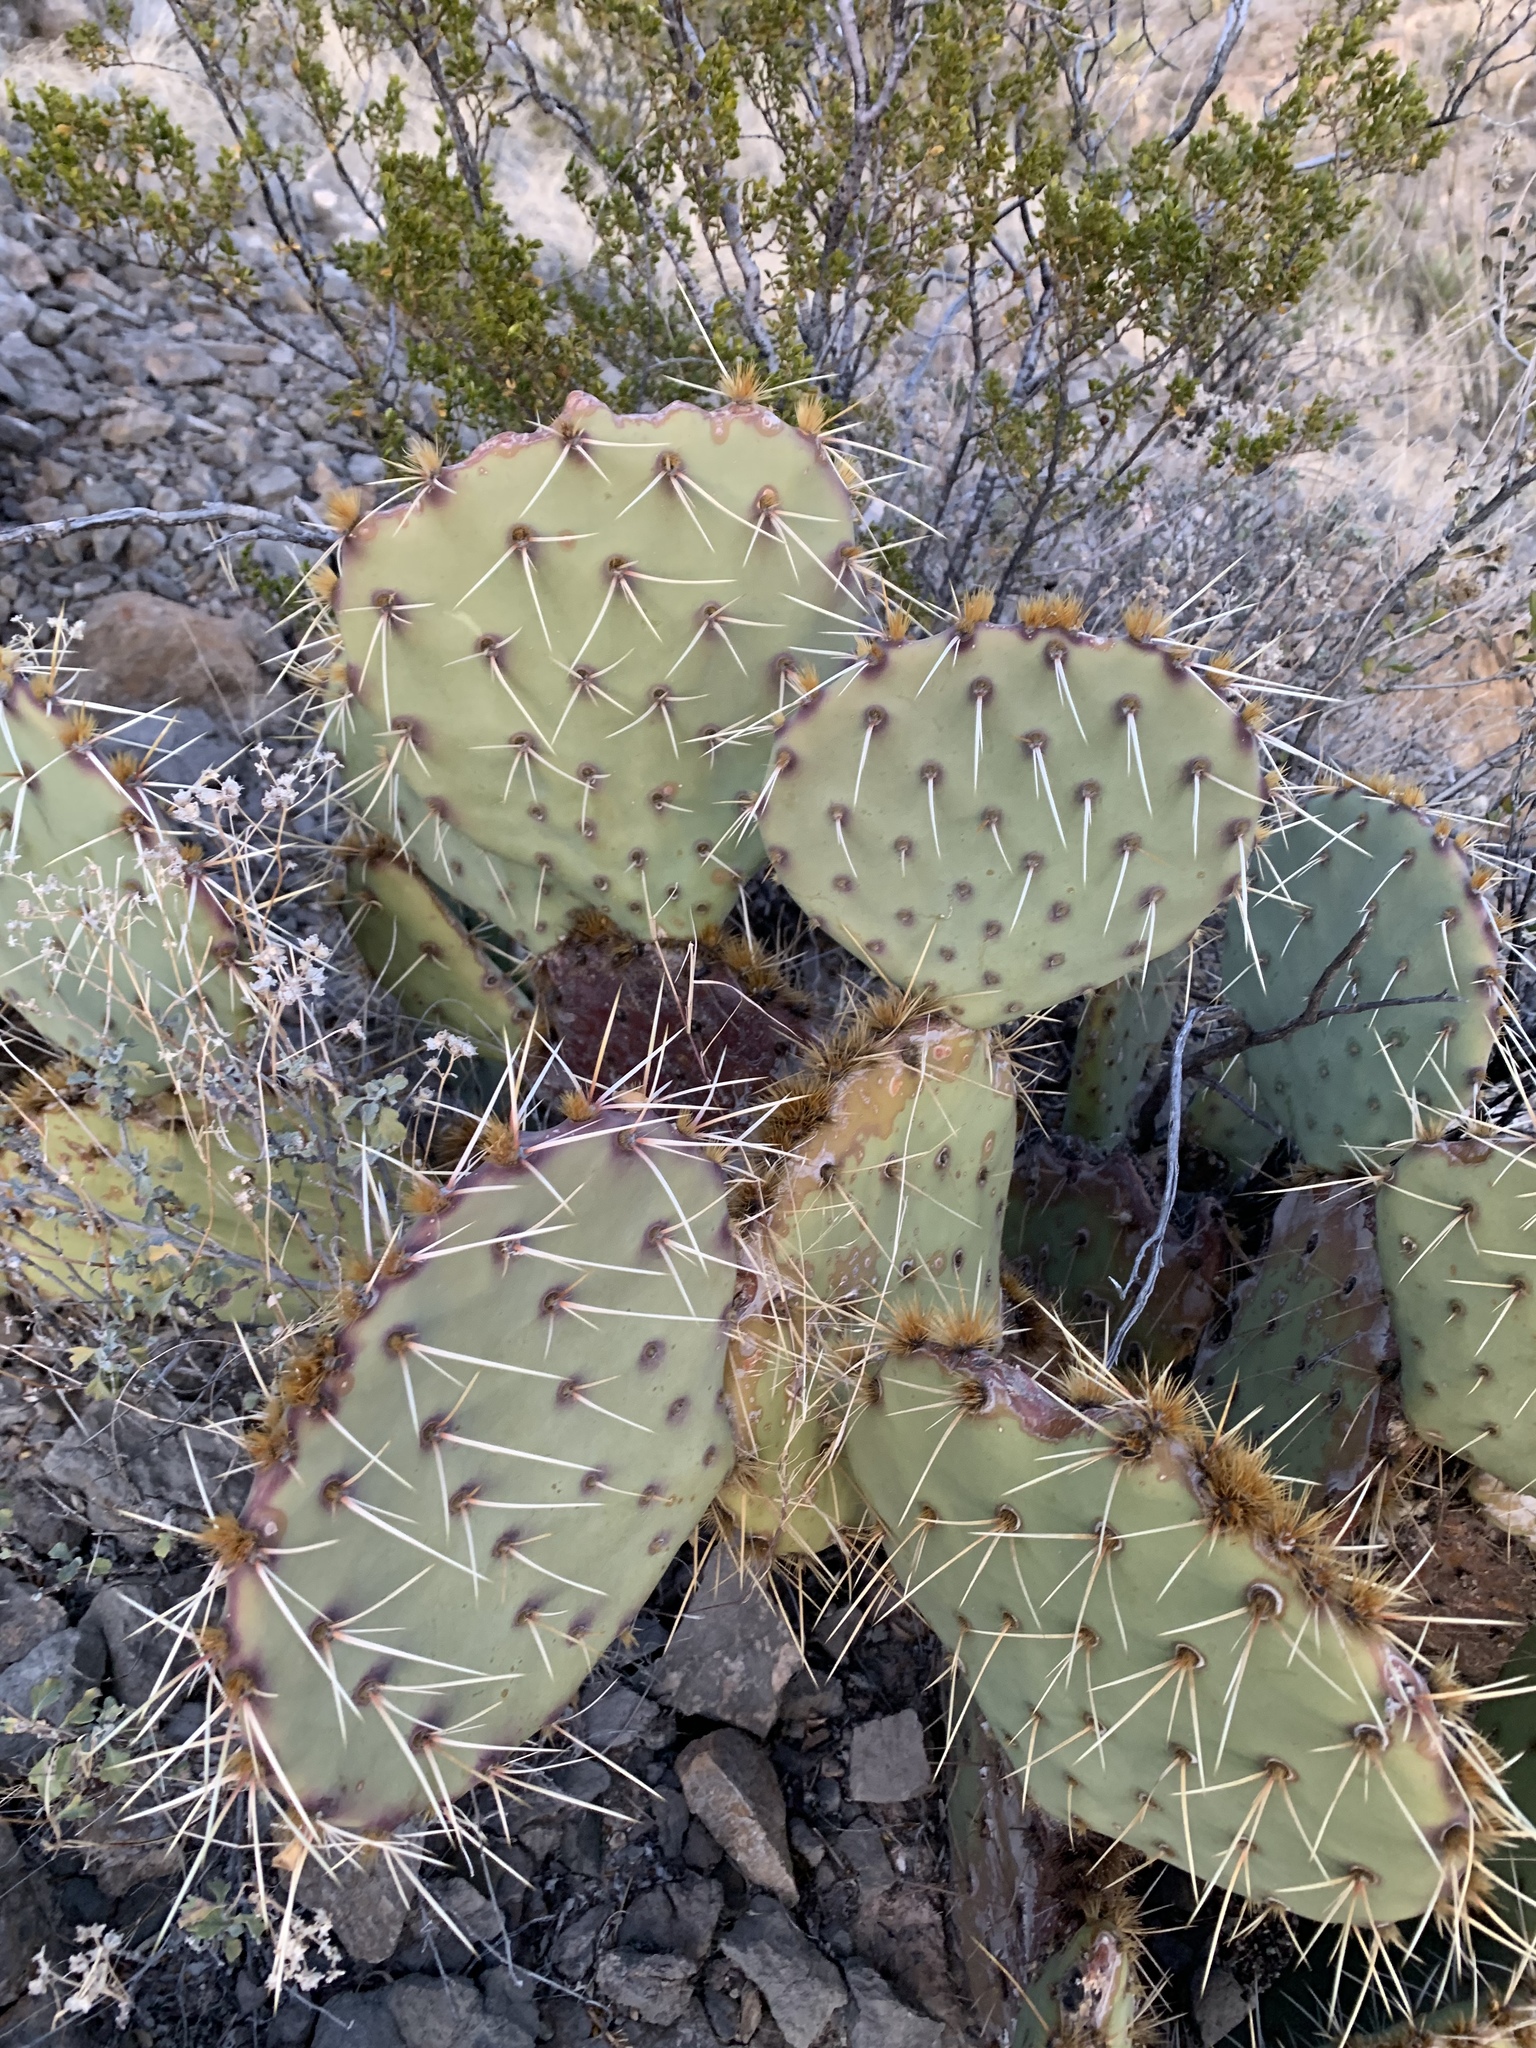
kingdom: Plantae
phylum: Tracheophyta
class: Magnoliopsida
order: Caryophyllales
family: Cactaceae
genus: Opuntia
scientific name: Opuntia engelmannii
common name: Cactus-apple
